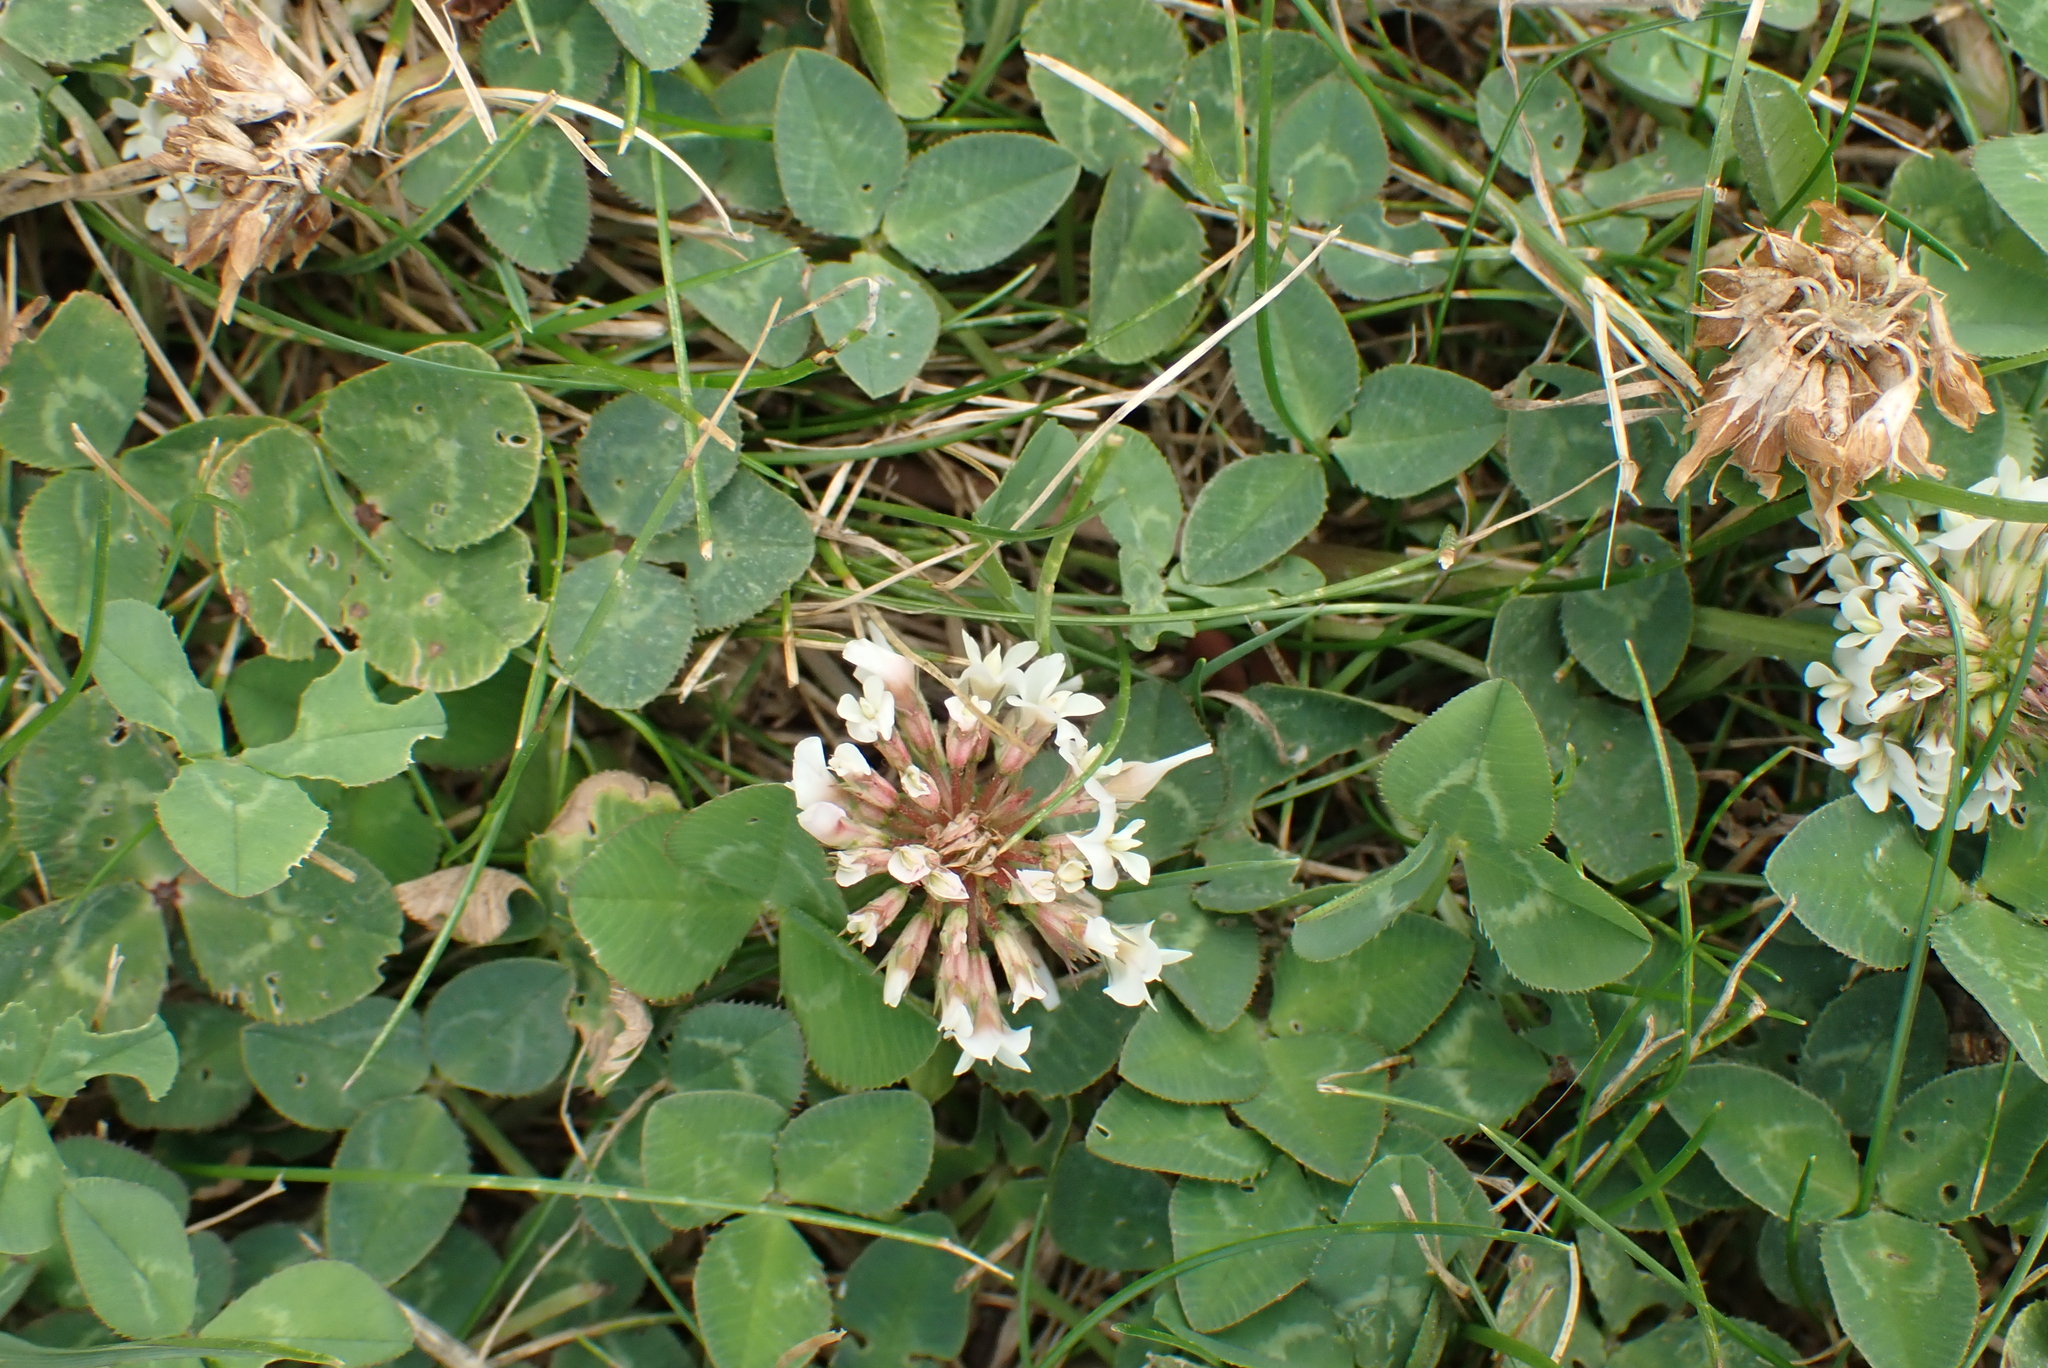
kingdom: Plantae
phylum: Tracheophyta
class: Magnoliopsida
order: Fabales
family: Fabaceae
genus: Trifolium
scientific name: Trifolium repens
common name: White clover
